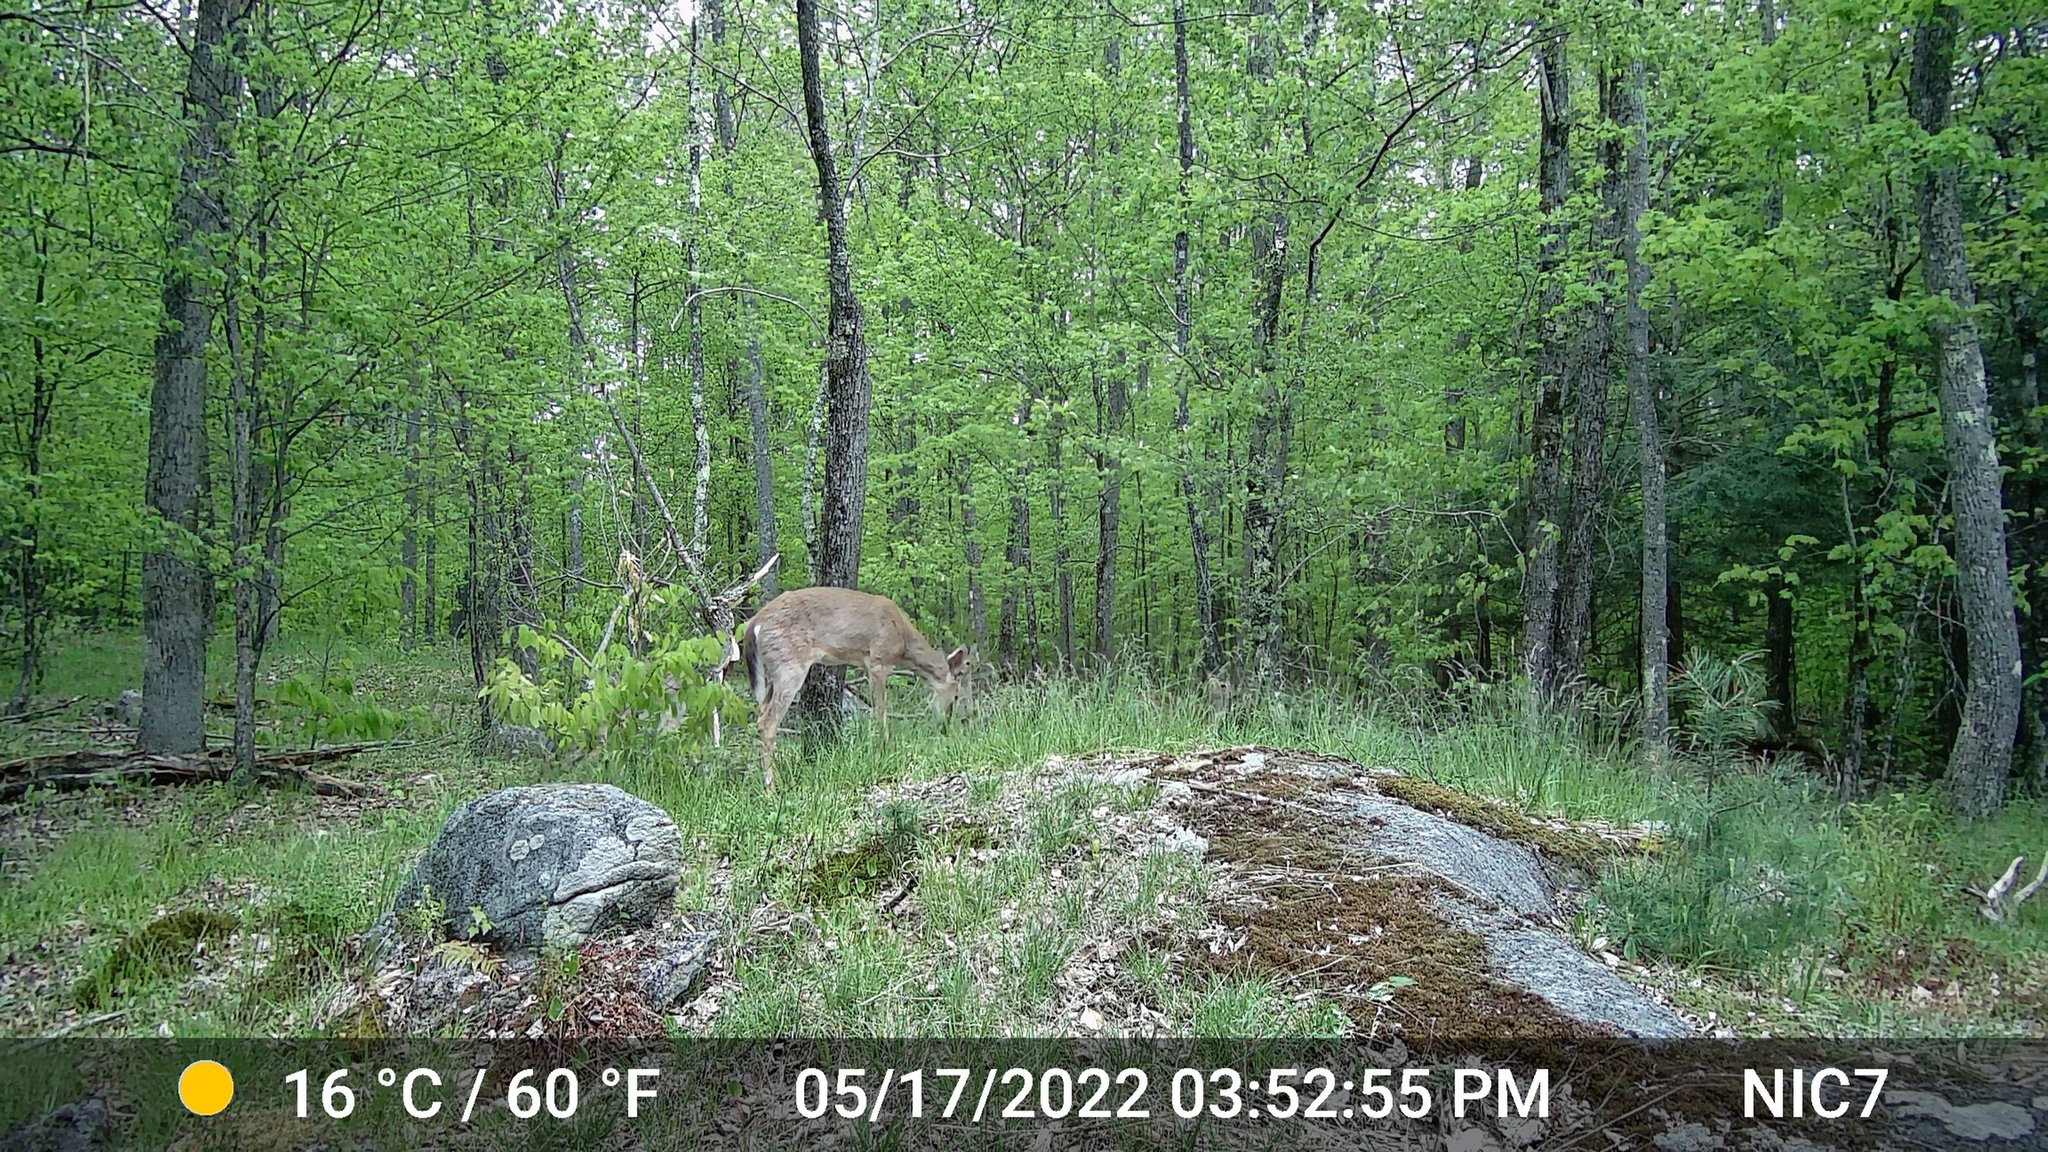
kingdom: Animalia
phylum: Chordata
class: Mammalia
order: Artiodactyla
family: Cervidae
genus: Odocoileus
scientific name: Odocoileus virginianus
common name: White-tailed deer
